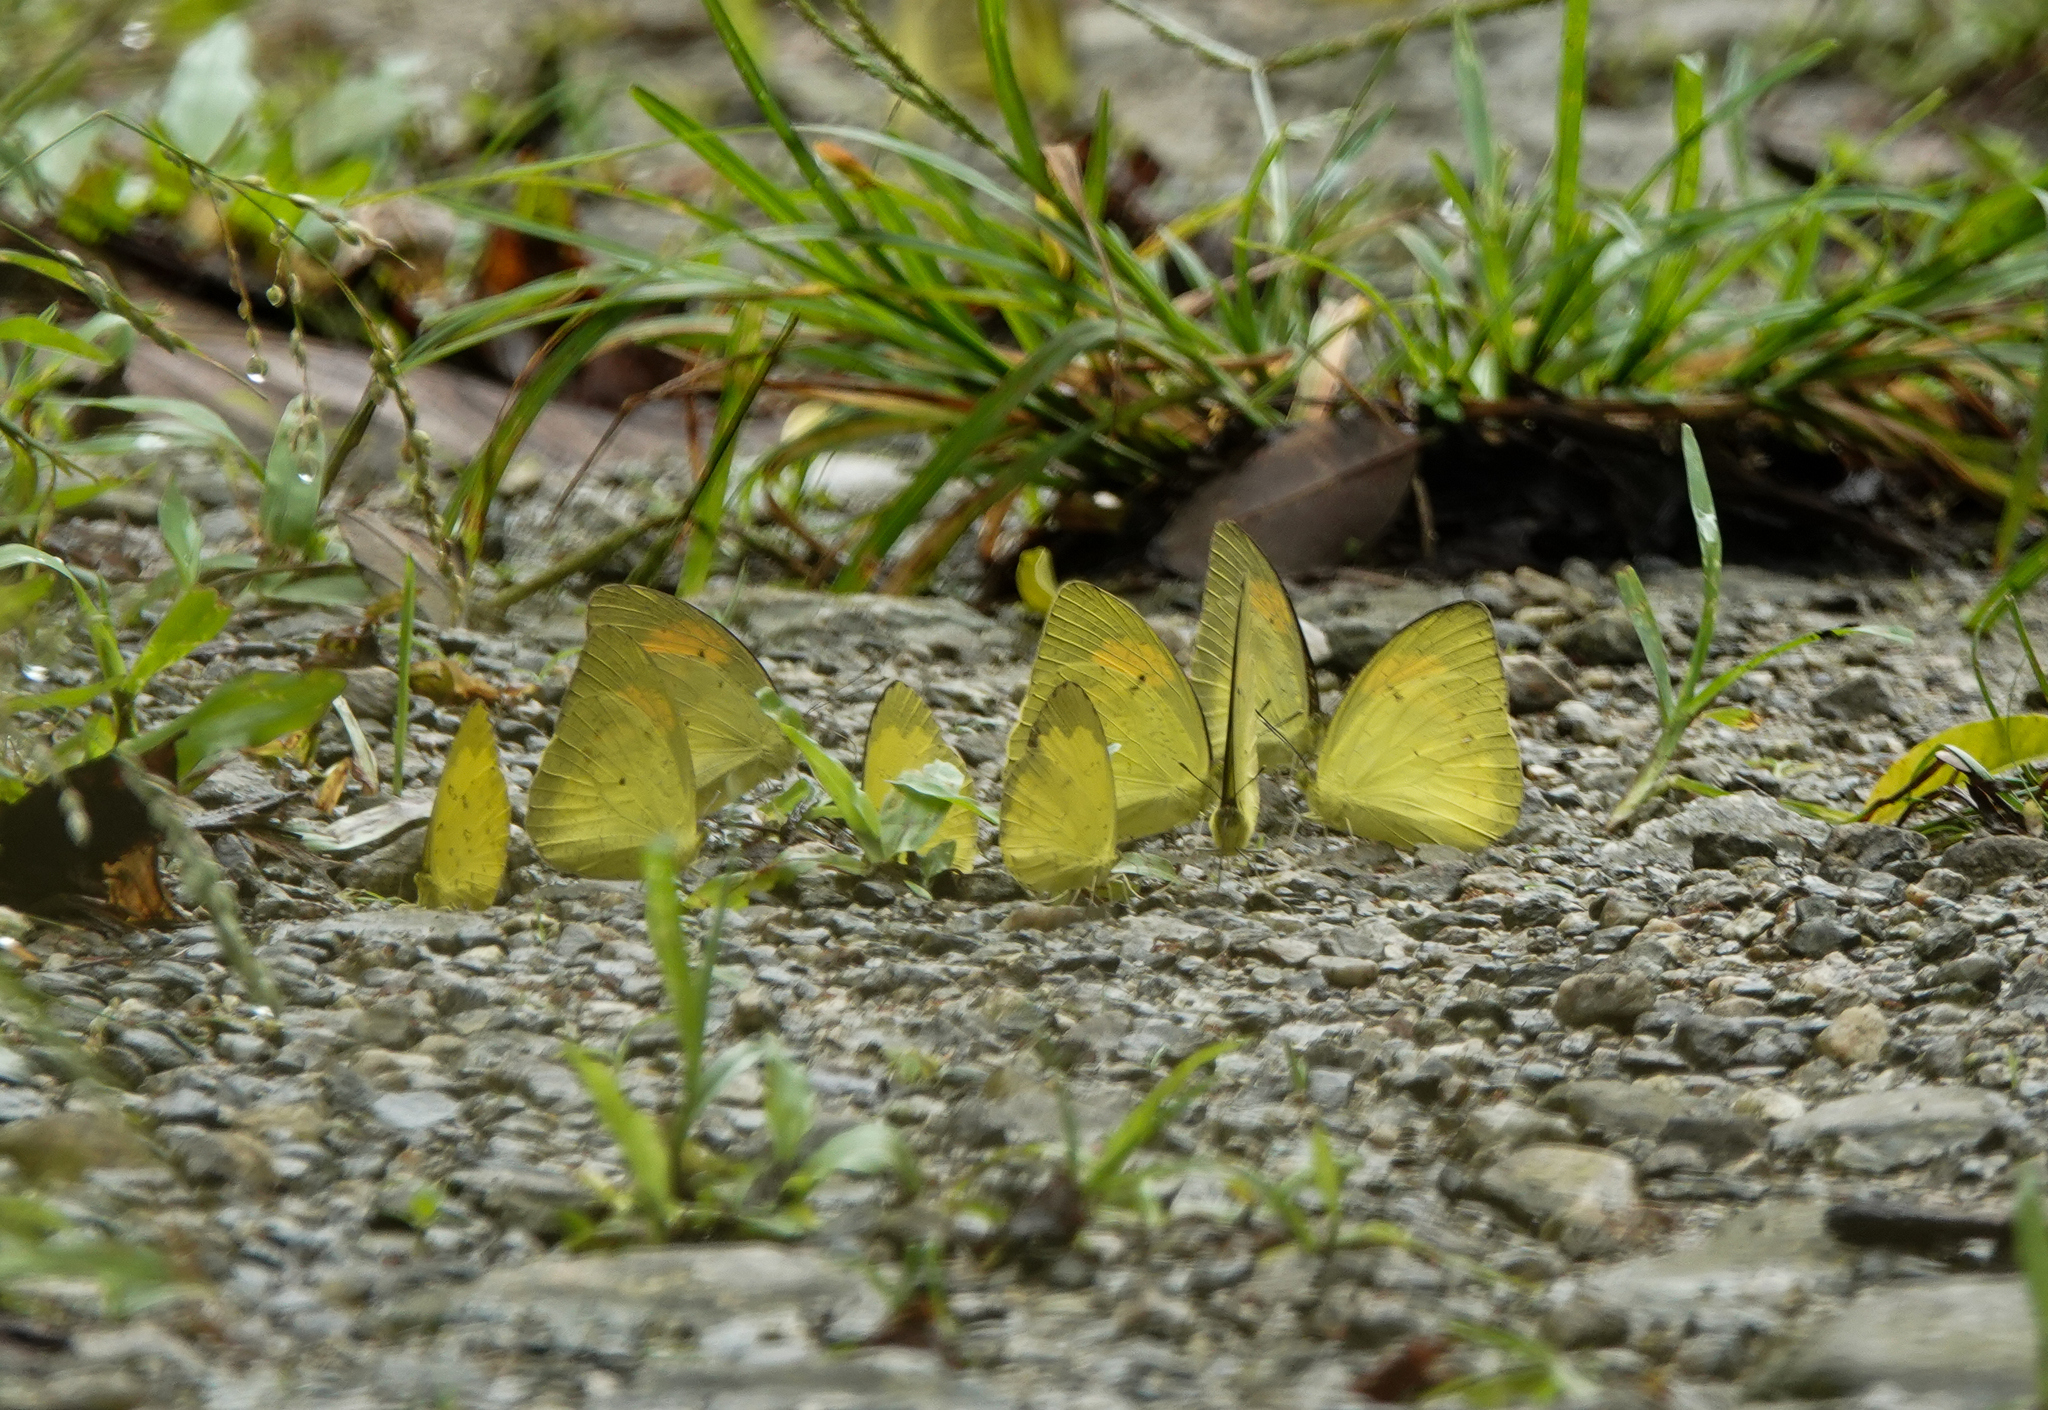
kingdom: Animalia
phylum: Arthropoda
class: Insecta
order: Lepidoptera
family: Pieridae
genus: Ixias
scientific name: Ixias pyrene
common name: Yellow orange tip
